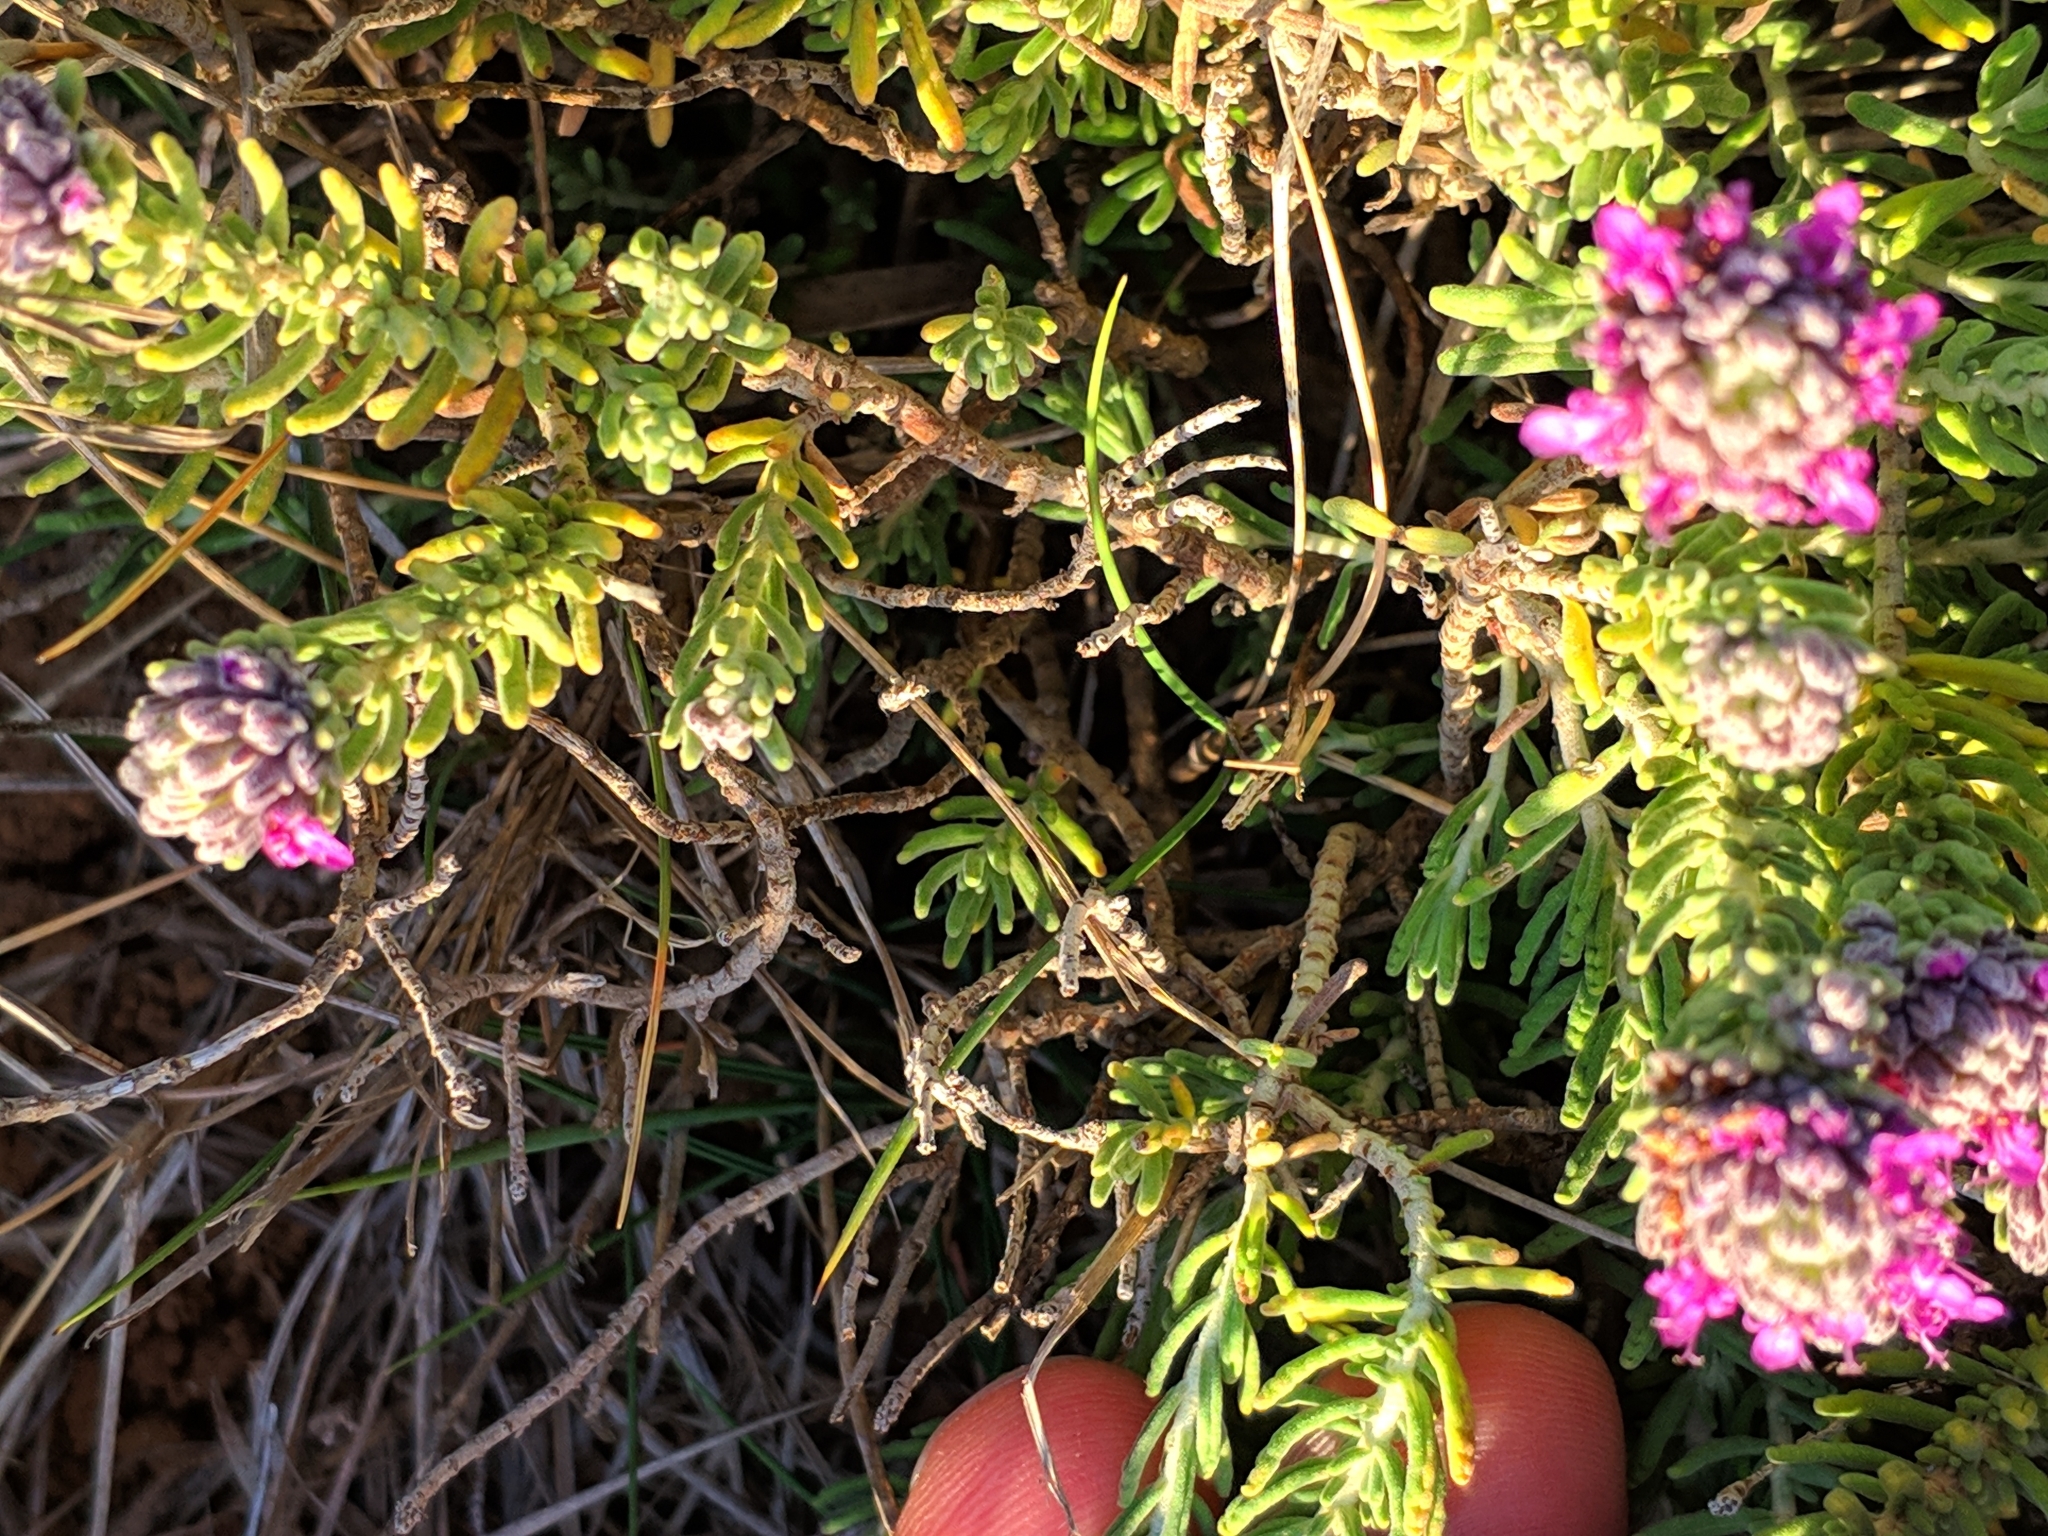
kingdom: Plantae
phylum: Tracheophyta
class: Magnoliopsida
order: Lamiales
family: Lamiaceae
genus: Teucrium
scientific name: Teucrium capitatum
